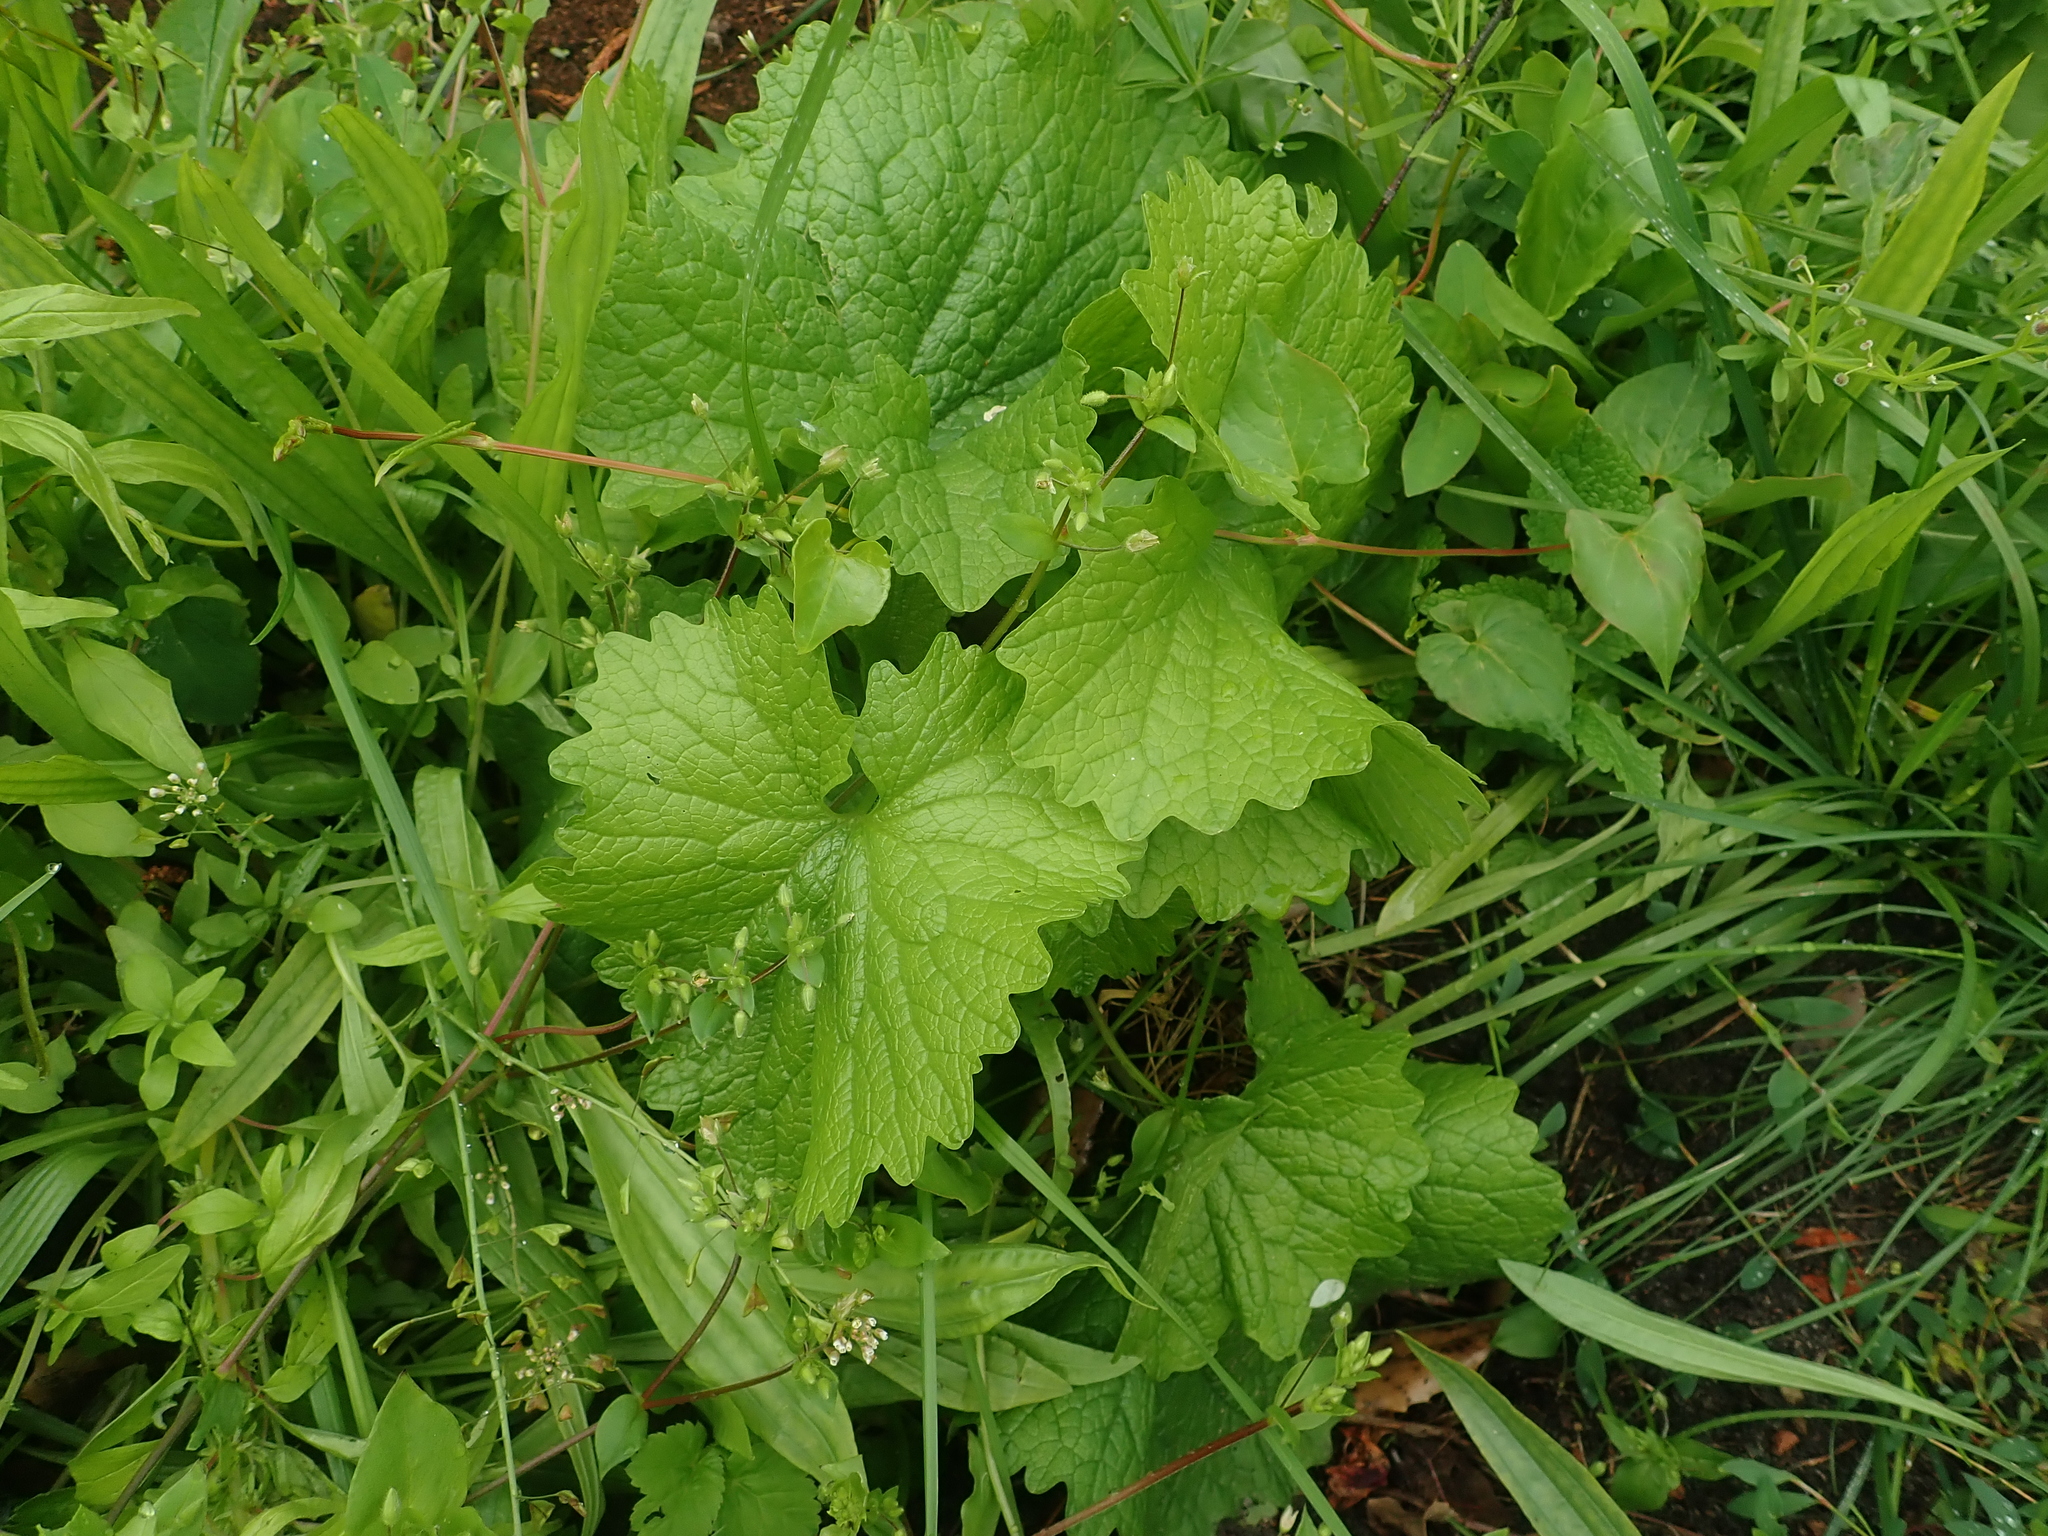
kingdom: Plantae
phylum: Tracheophyta
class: Magnoliopsida
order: Brassicales
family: Brassicaceae
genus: Alliaria
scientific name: Alliaria petiolata
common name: Garlic mustard
